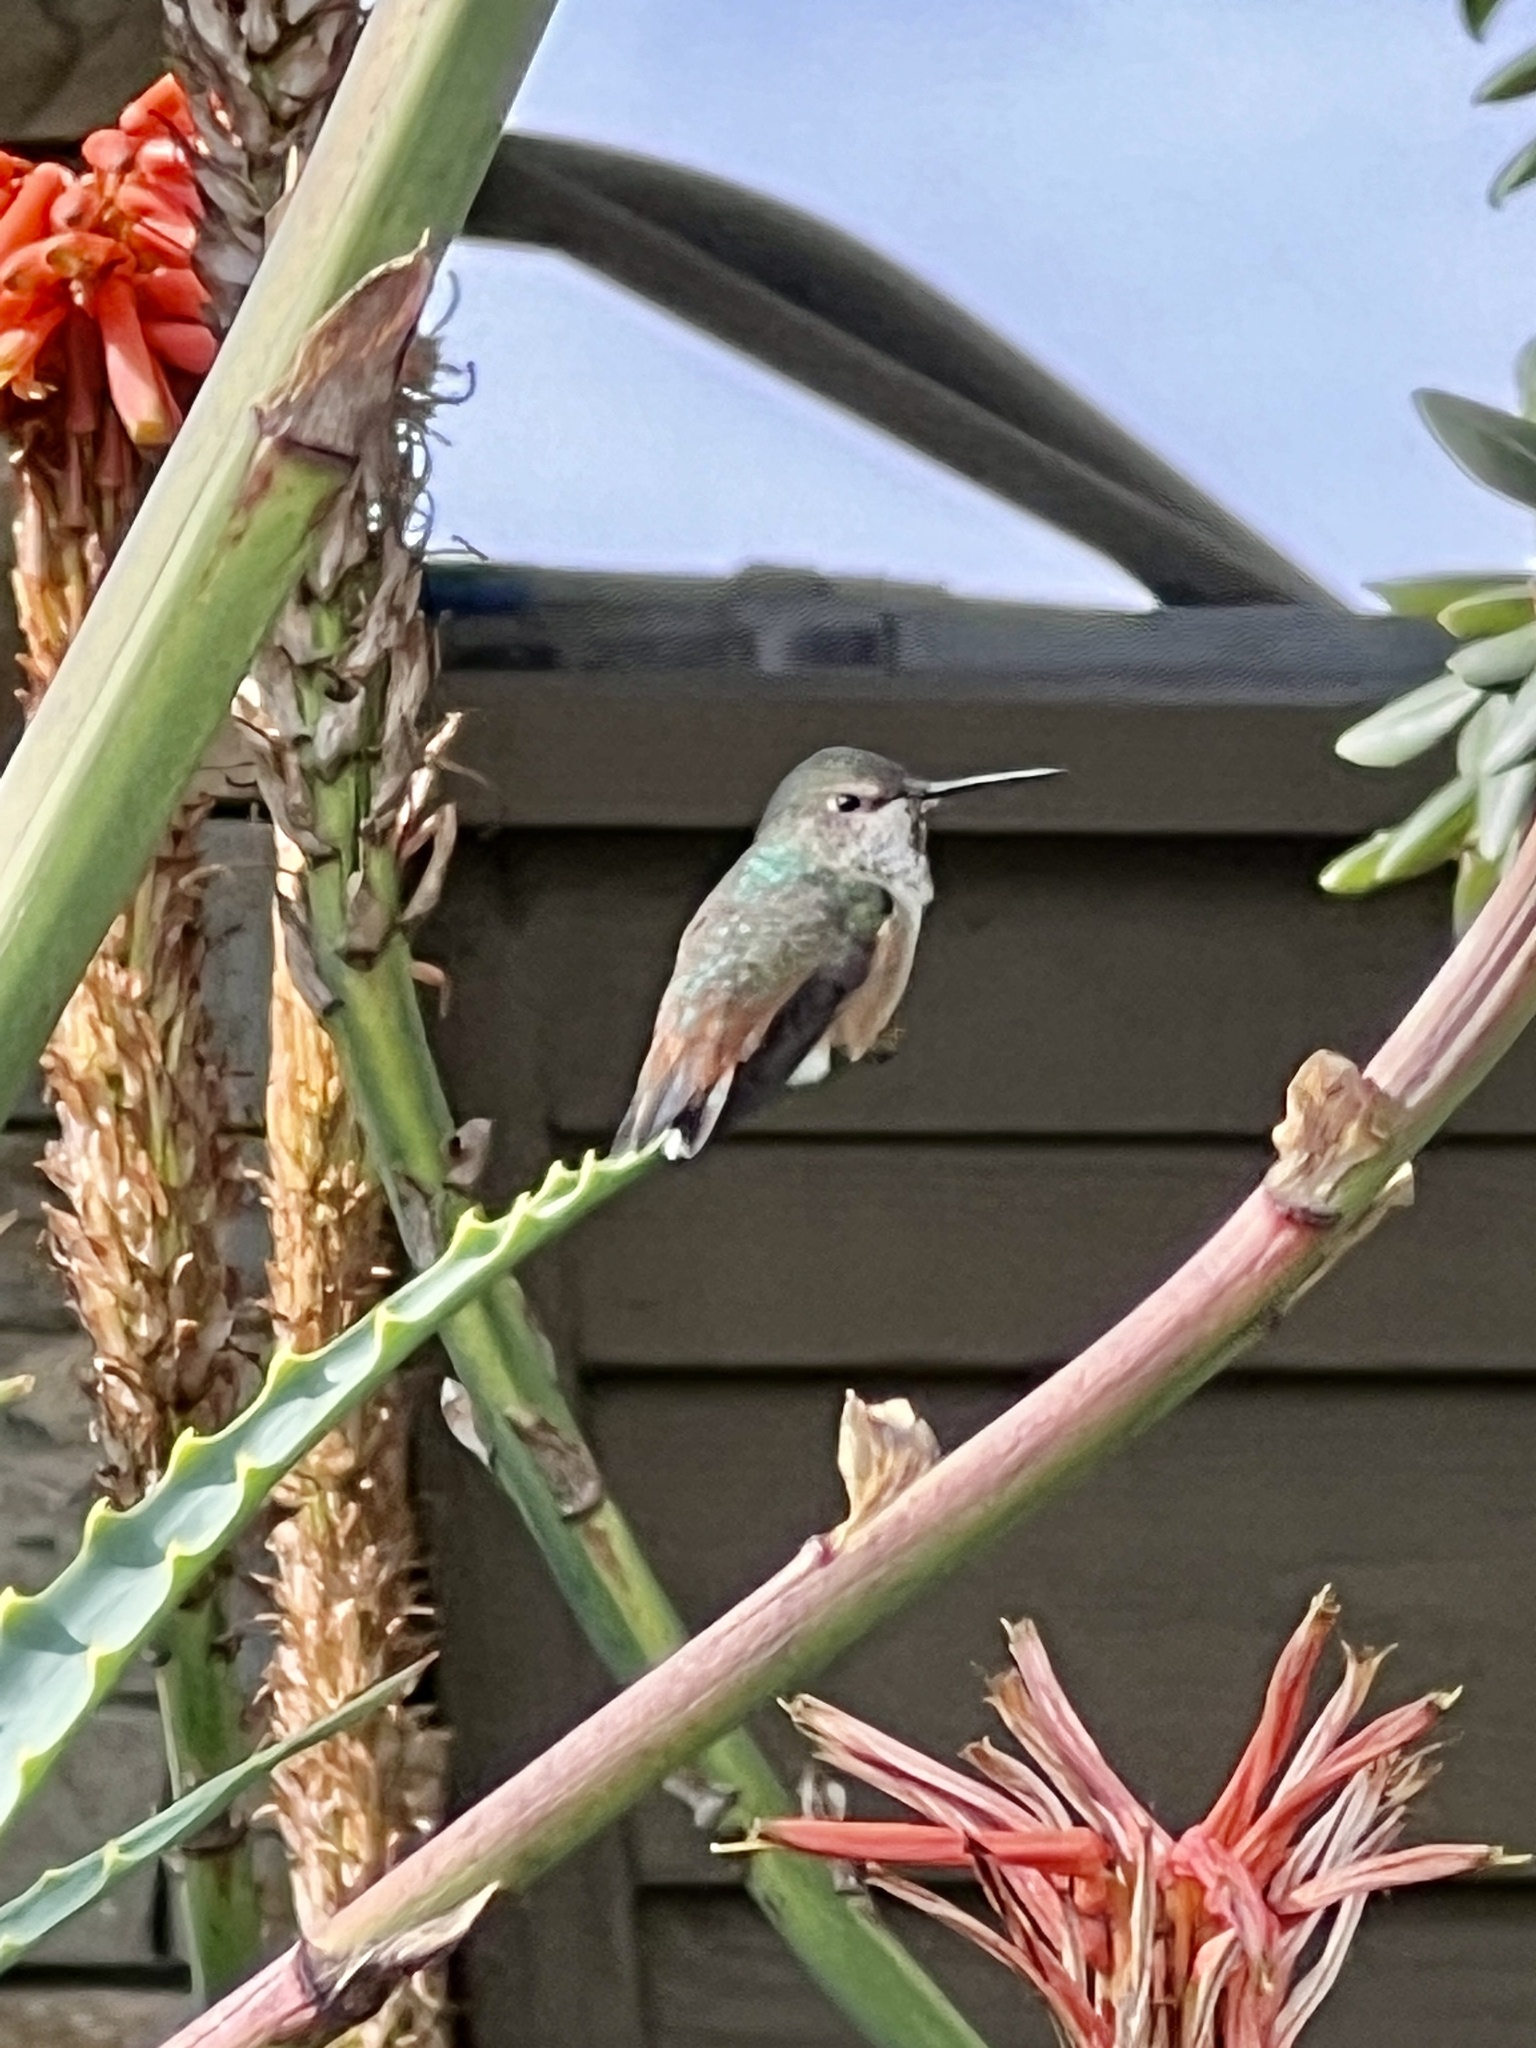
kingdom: Animalia
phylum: Chordata
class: Aves
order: Apodiformes
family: Trochilidae
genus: Selasphorus
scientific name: Selasphorus sasin
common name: Allen's hummingbird
